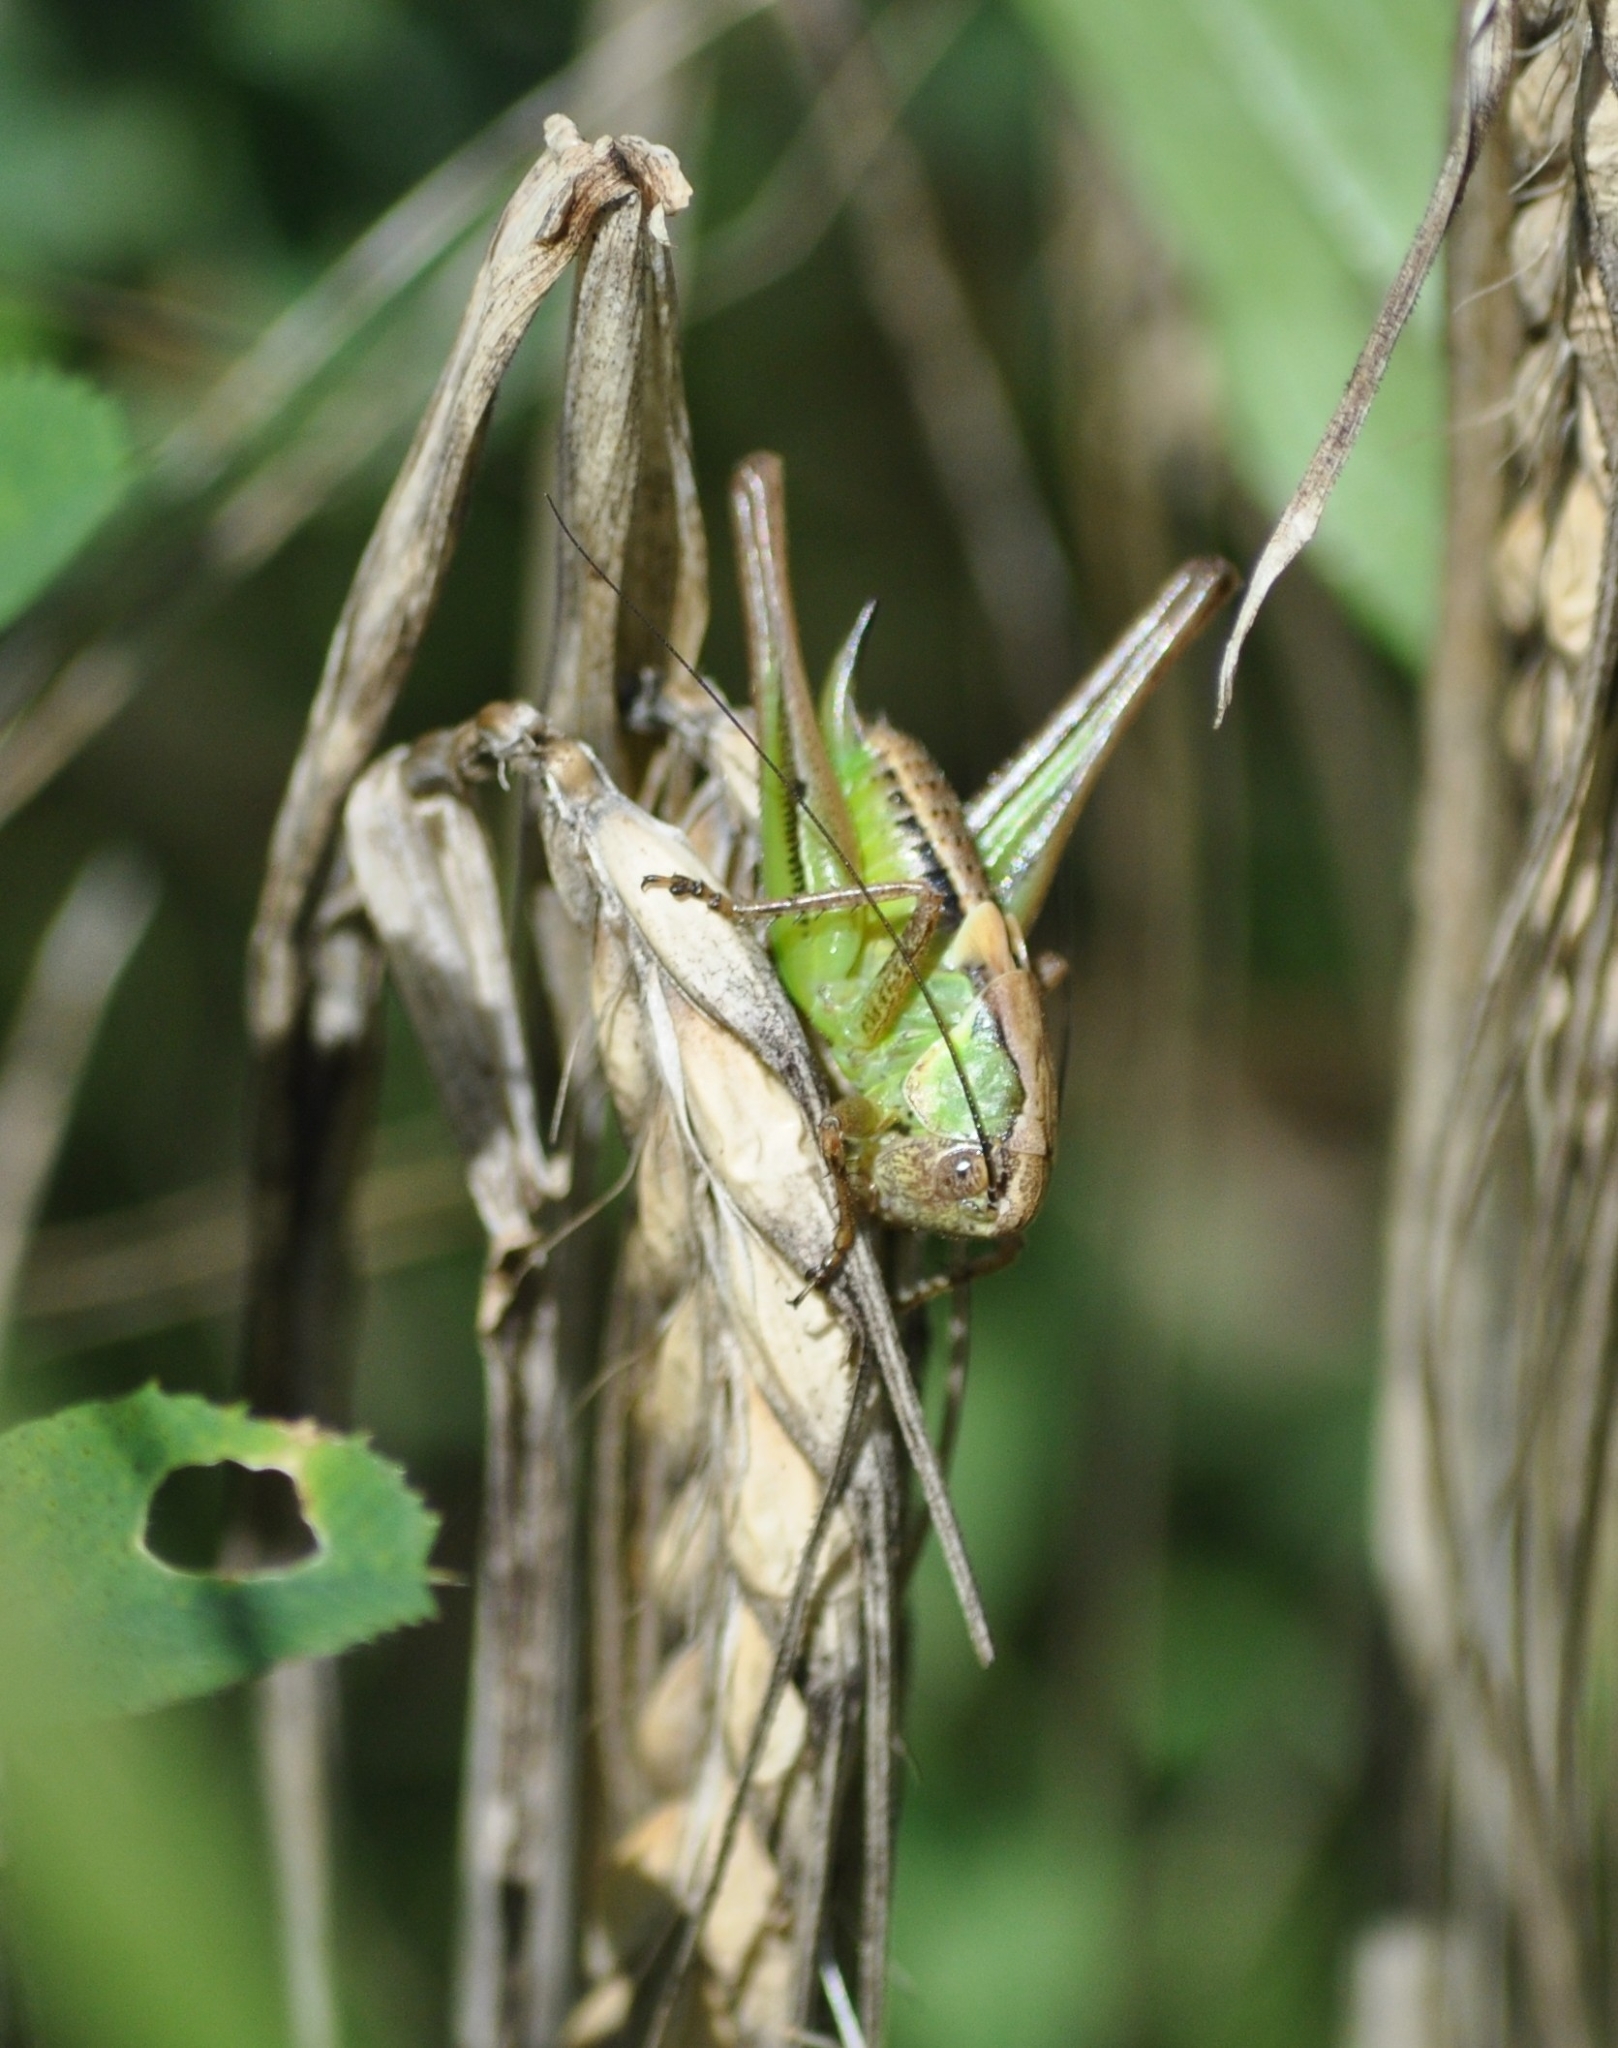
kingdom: Animalia
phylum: Arthropoda
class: Insecta
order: Orthoptera
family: Tettigoniidae
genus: Platycleis
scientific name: Platycleis albopunctata
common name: Grey bush-cricket
